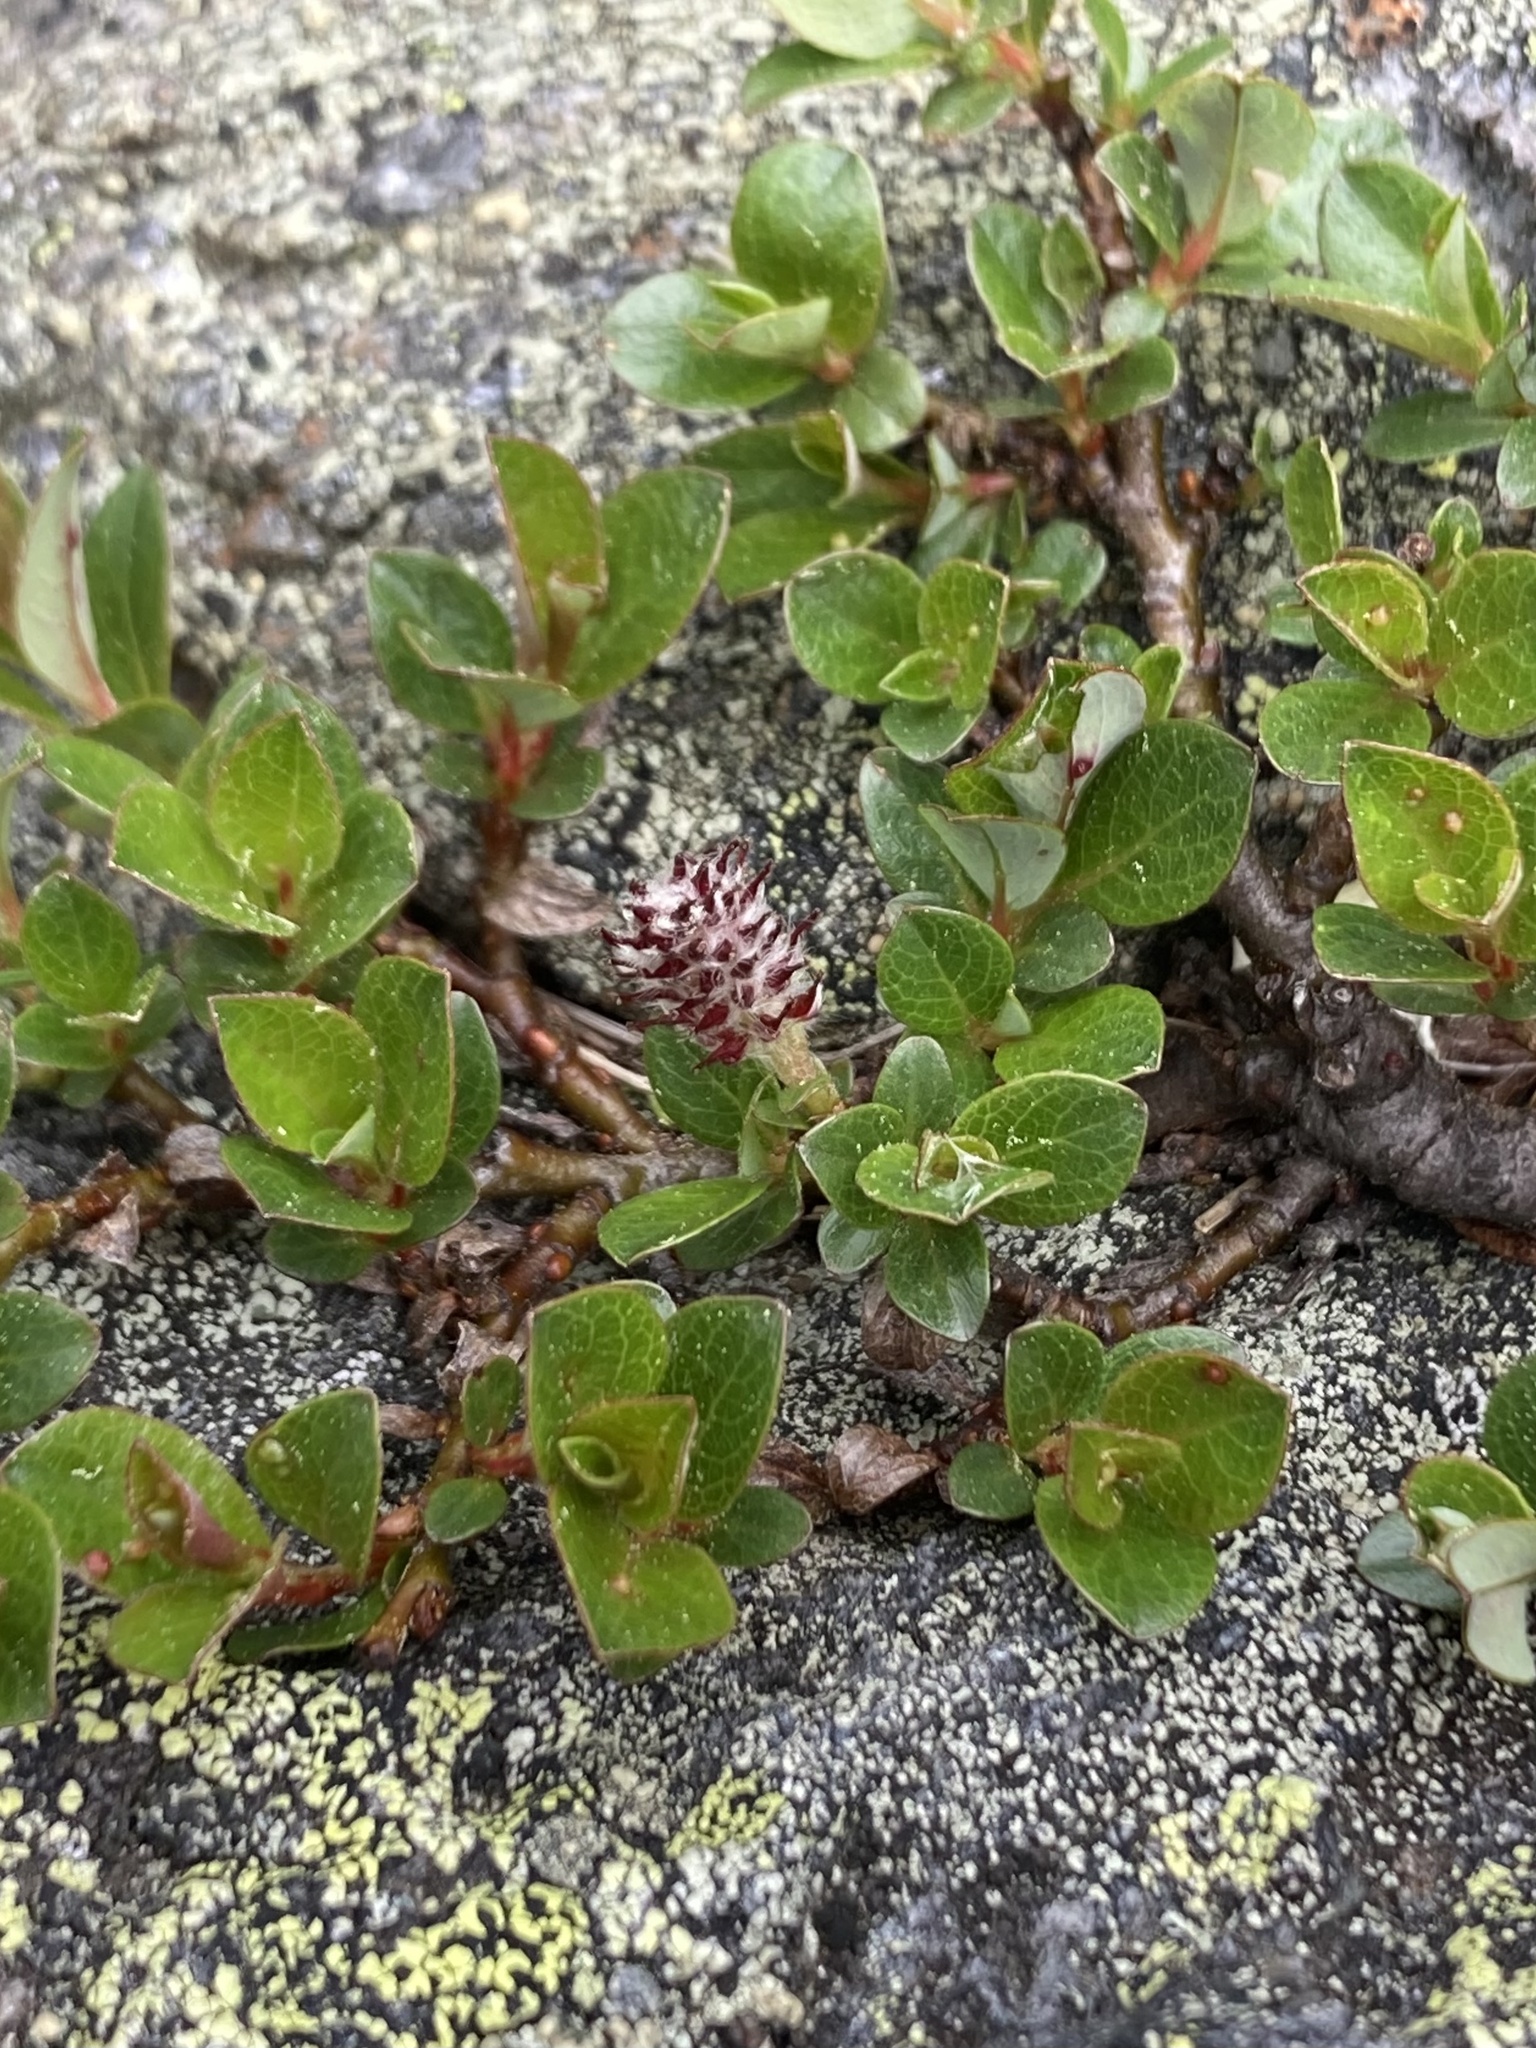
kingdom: Plantae
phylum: Tracheophyta
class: Magnoliopsida
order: Malpighiales
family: Salicaceae
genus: Salix
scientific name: Salix uva-ursi
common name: Bearberry willow
